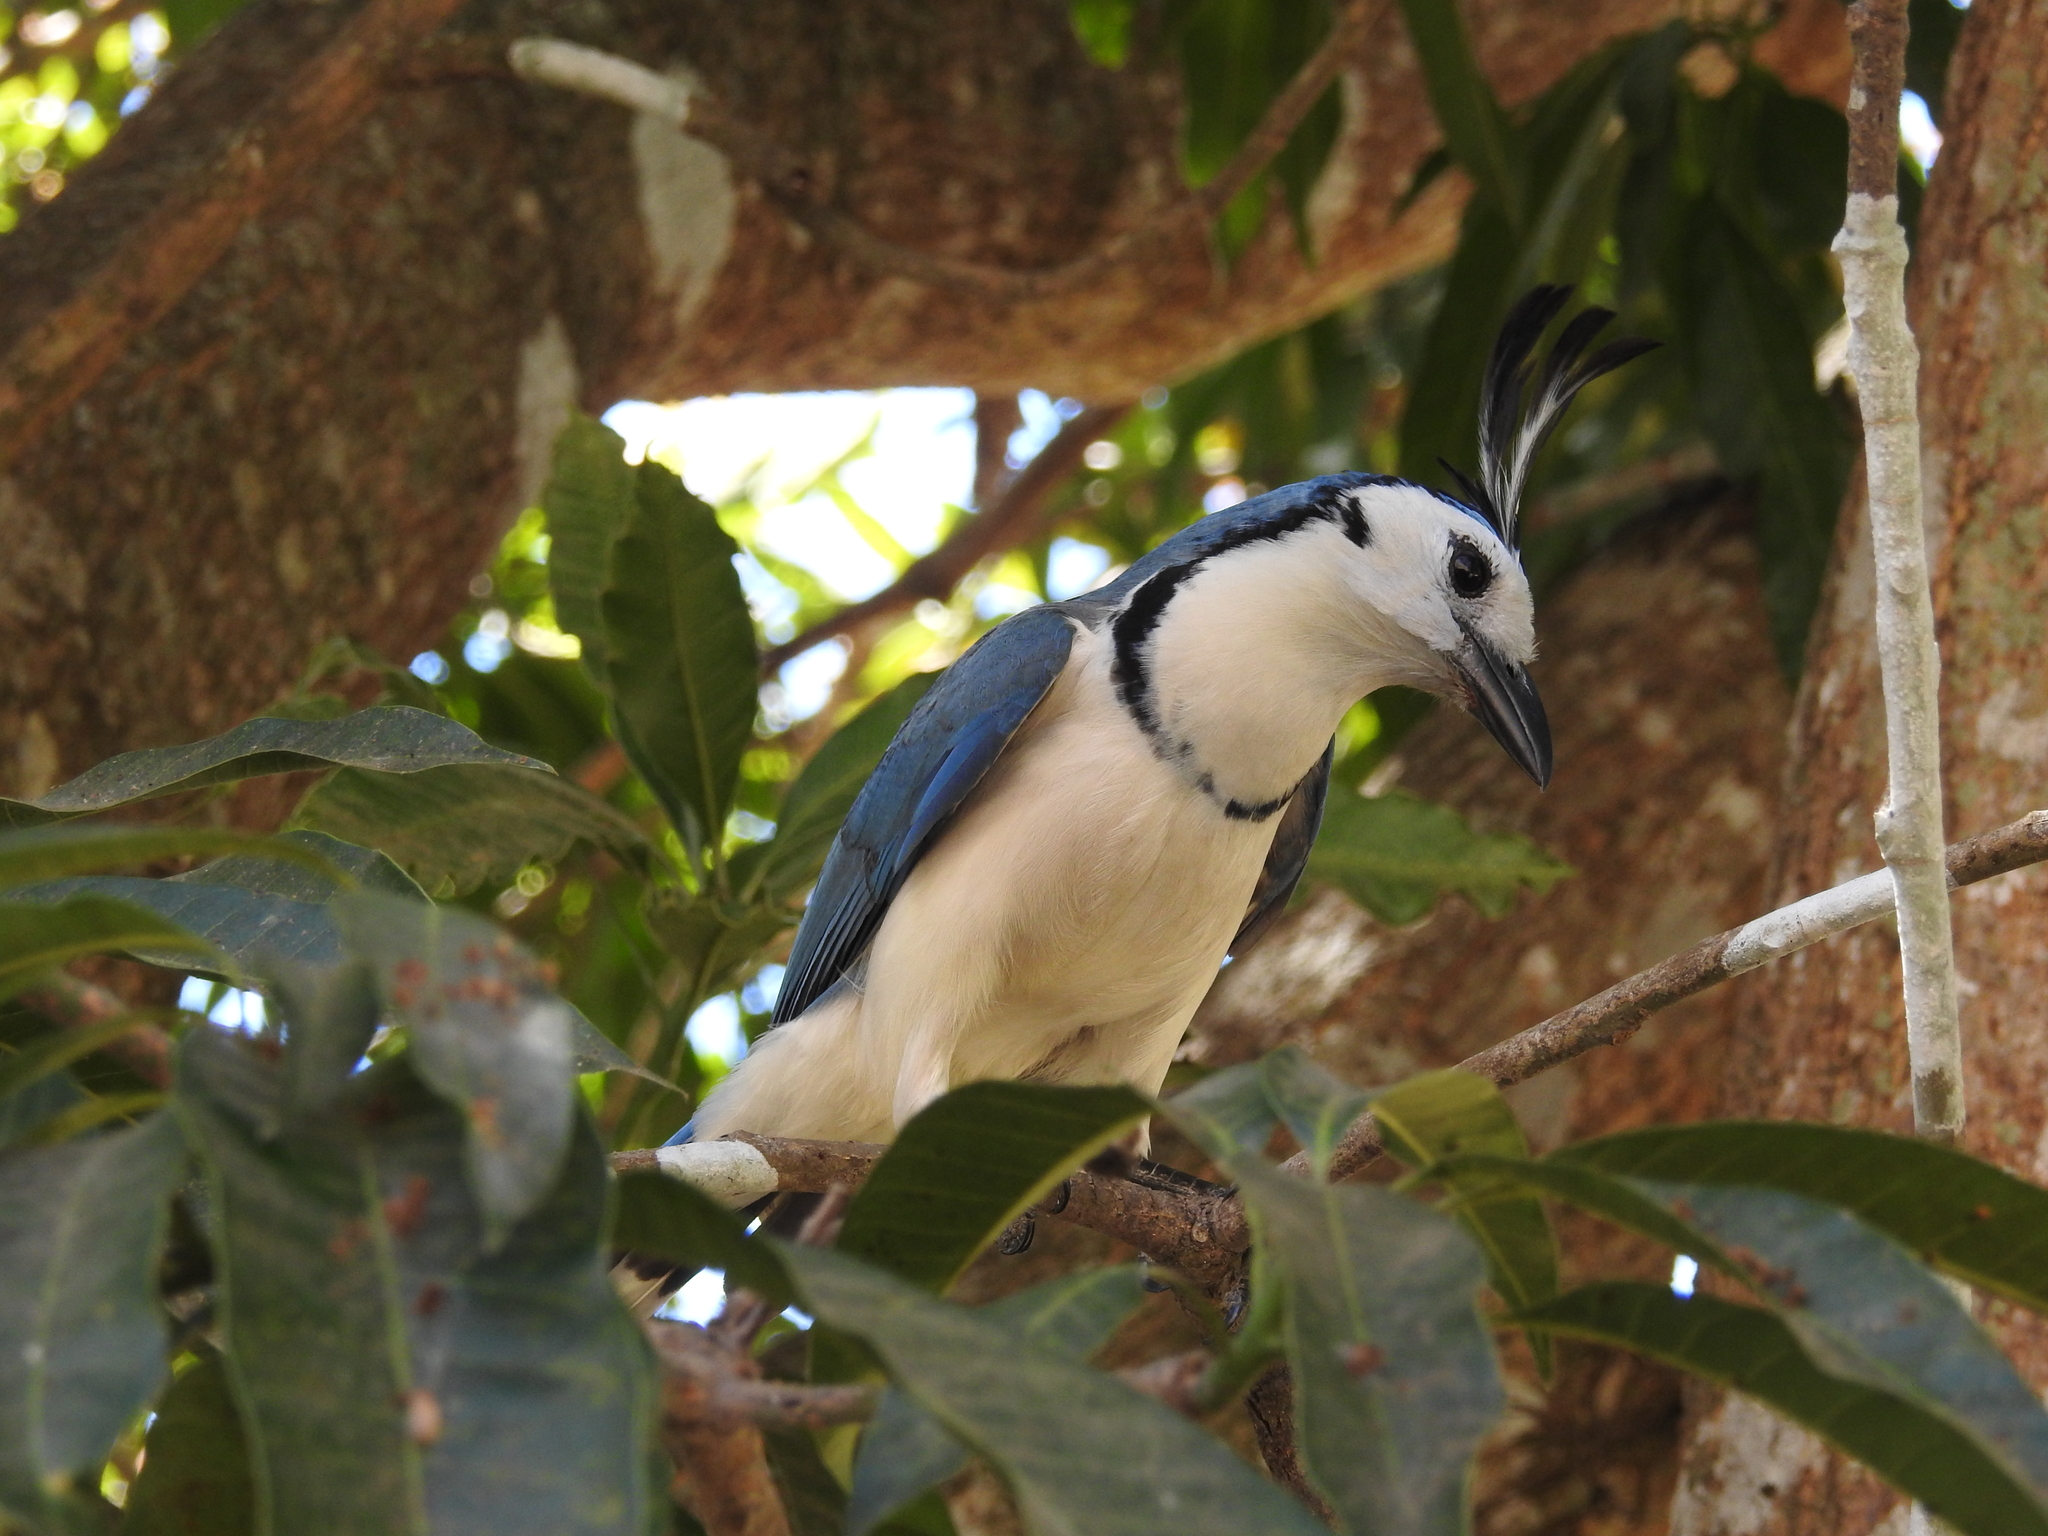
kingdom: Animalia
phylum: Chordata
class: Aves
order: Passeriformes
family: Corvidae
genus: Calocitta
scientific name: Calocitta formosa
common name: White-throated magpie-jay
